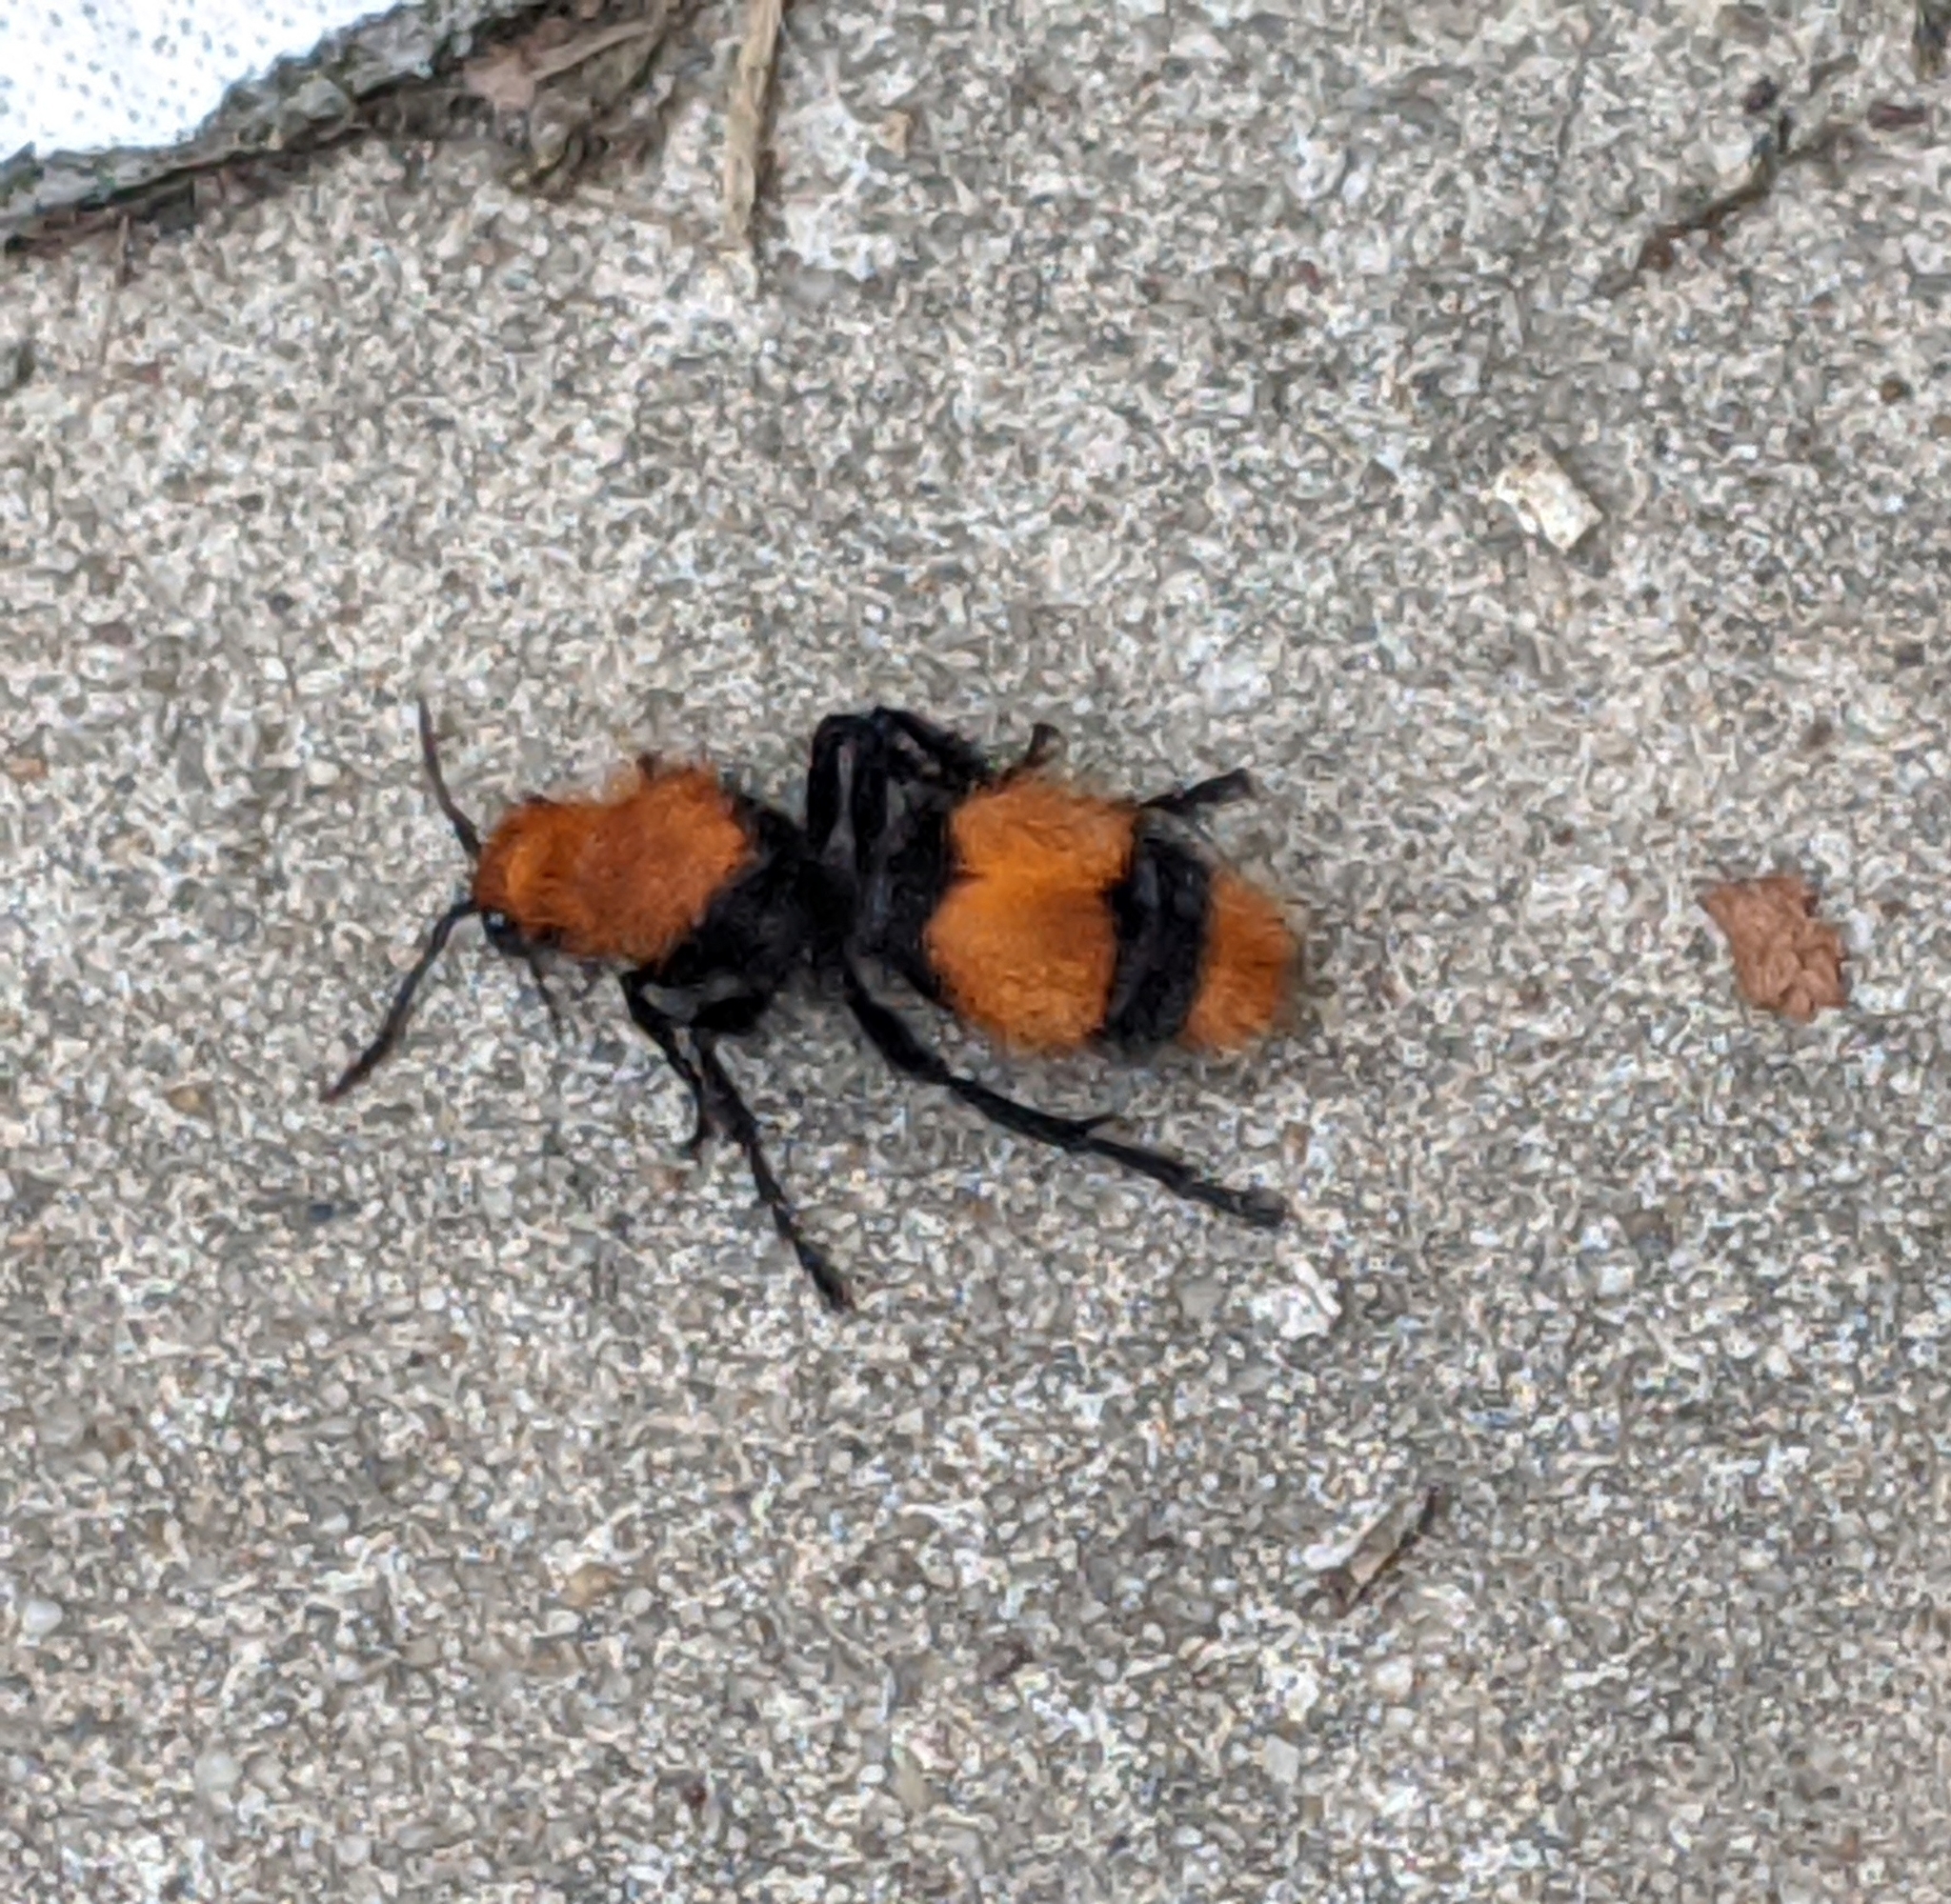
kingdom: Animalia
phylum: Arthropoda
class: Insecta
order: Hymenoptera
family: Mutillidae
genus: Dasymutilla
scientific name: Dasymutilla occidentalis
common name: Common eastern velvet ant
